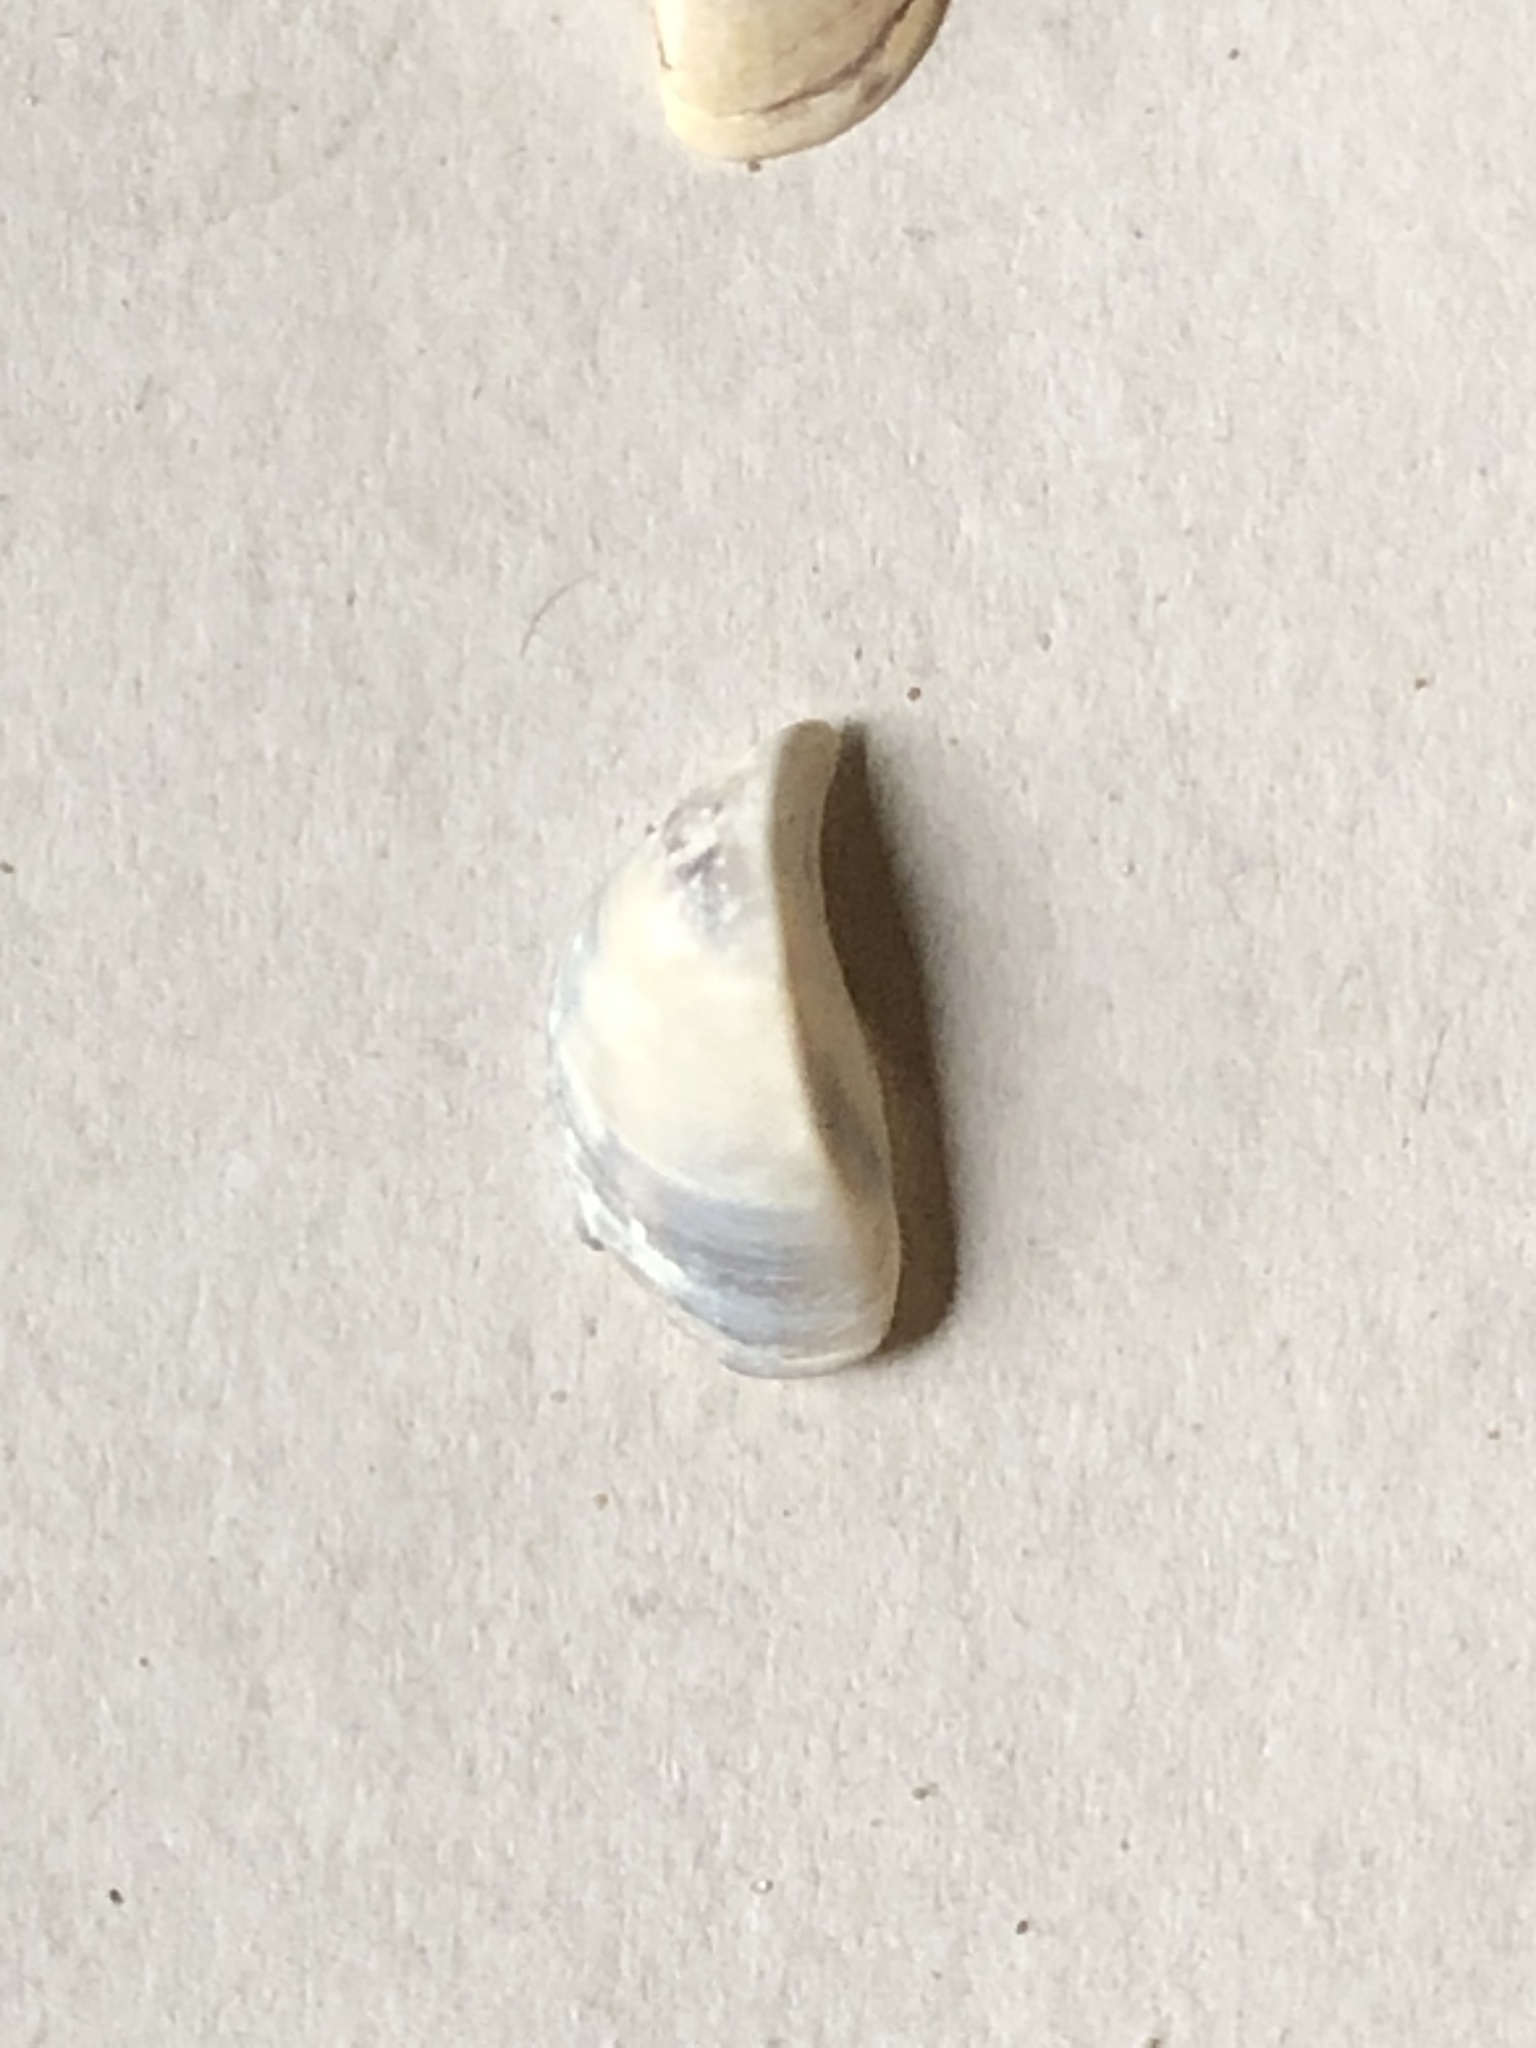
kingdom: Animalia
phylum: Mollusca
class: Bivalvia
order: Myida
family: Dreissenidae
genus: Dreissena
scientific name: Dreissena polymorpha
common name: Zebra mussel
